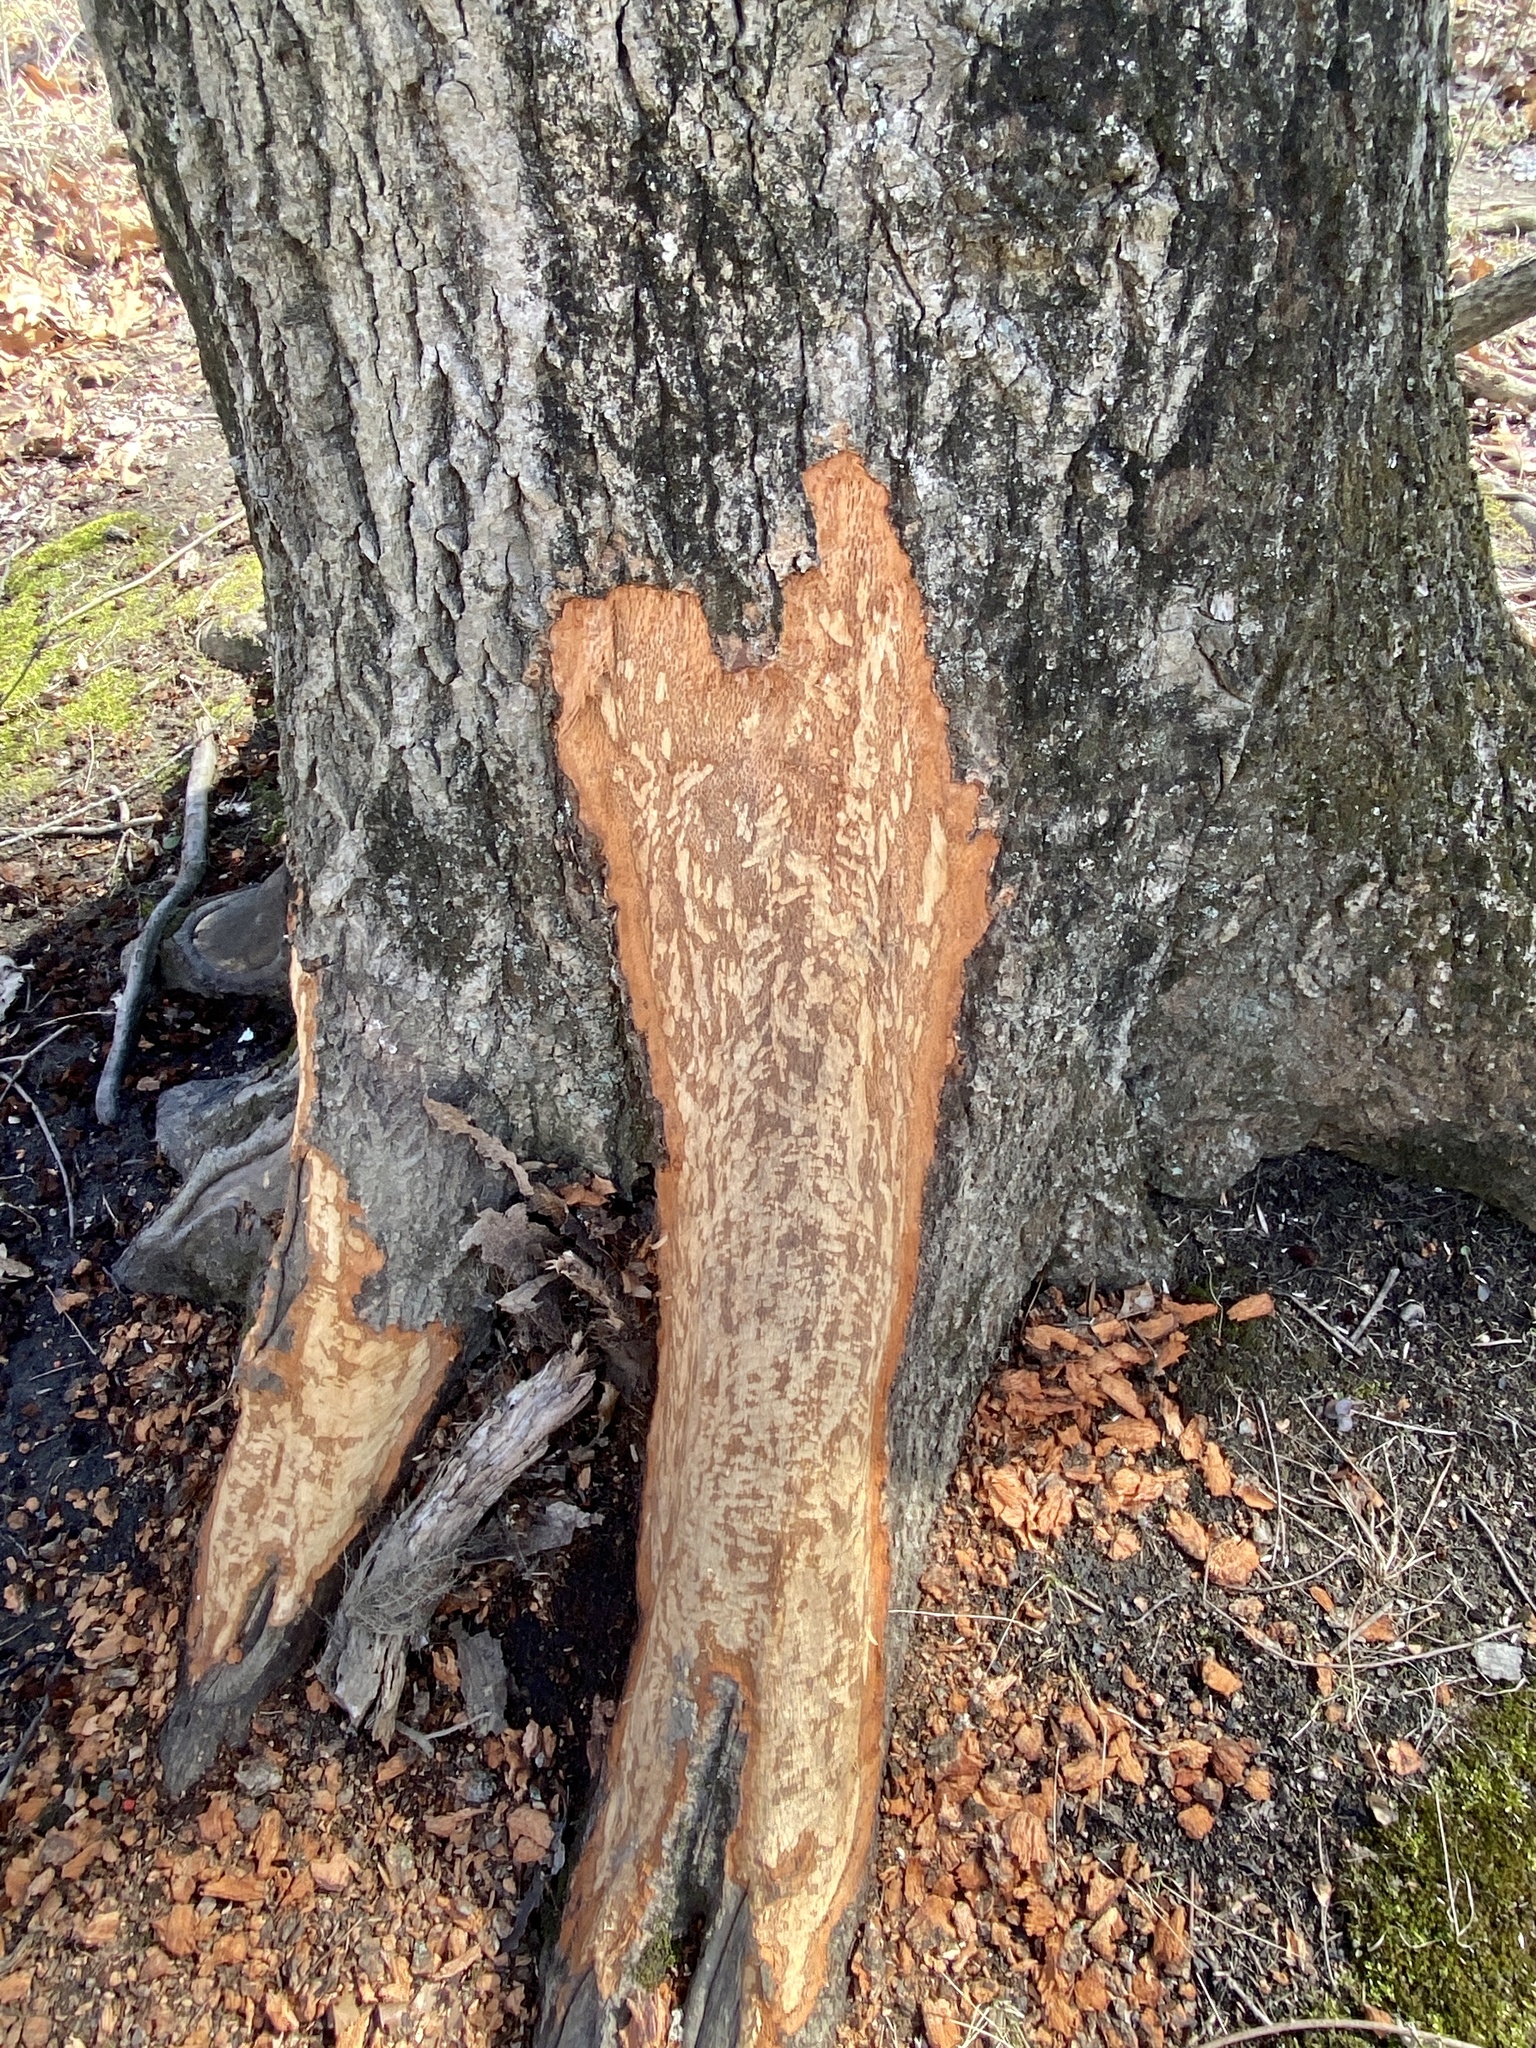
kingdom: Animalia
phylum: Chordata
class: Mammalia
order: Rodentia
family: Erethizontidae
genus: Erethizon
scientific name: Erethizon dorsatus
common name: North american porcupine
